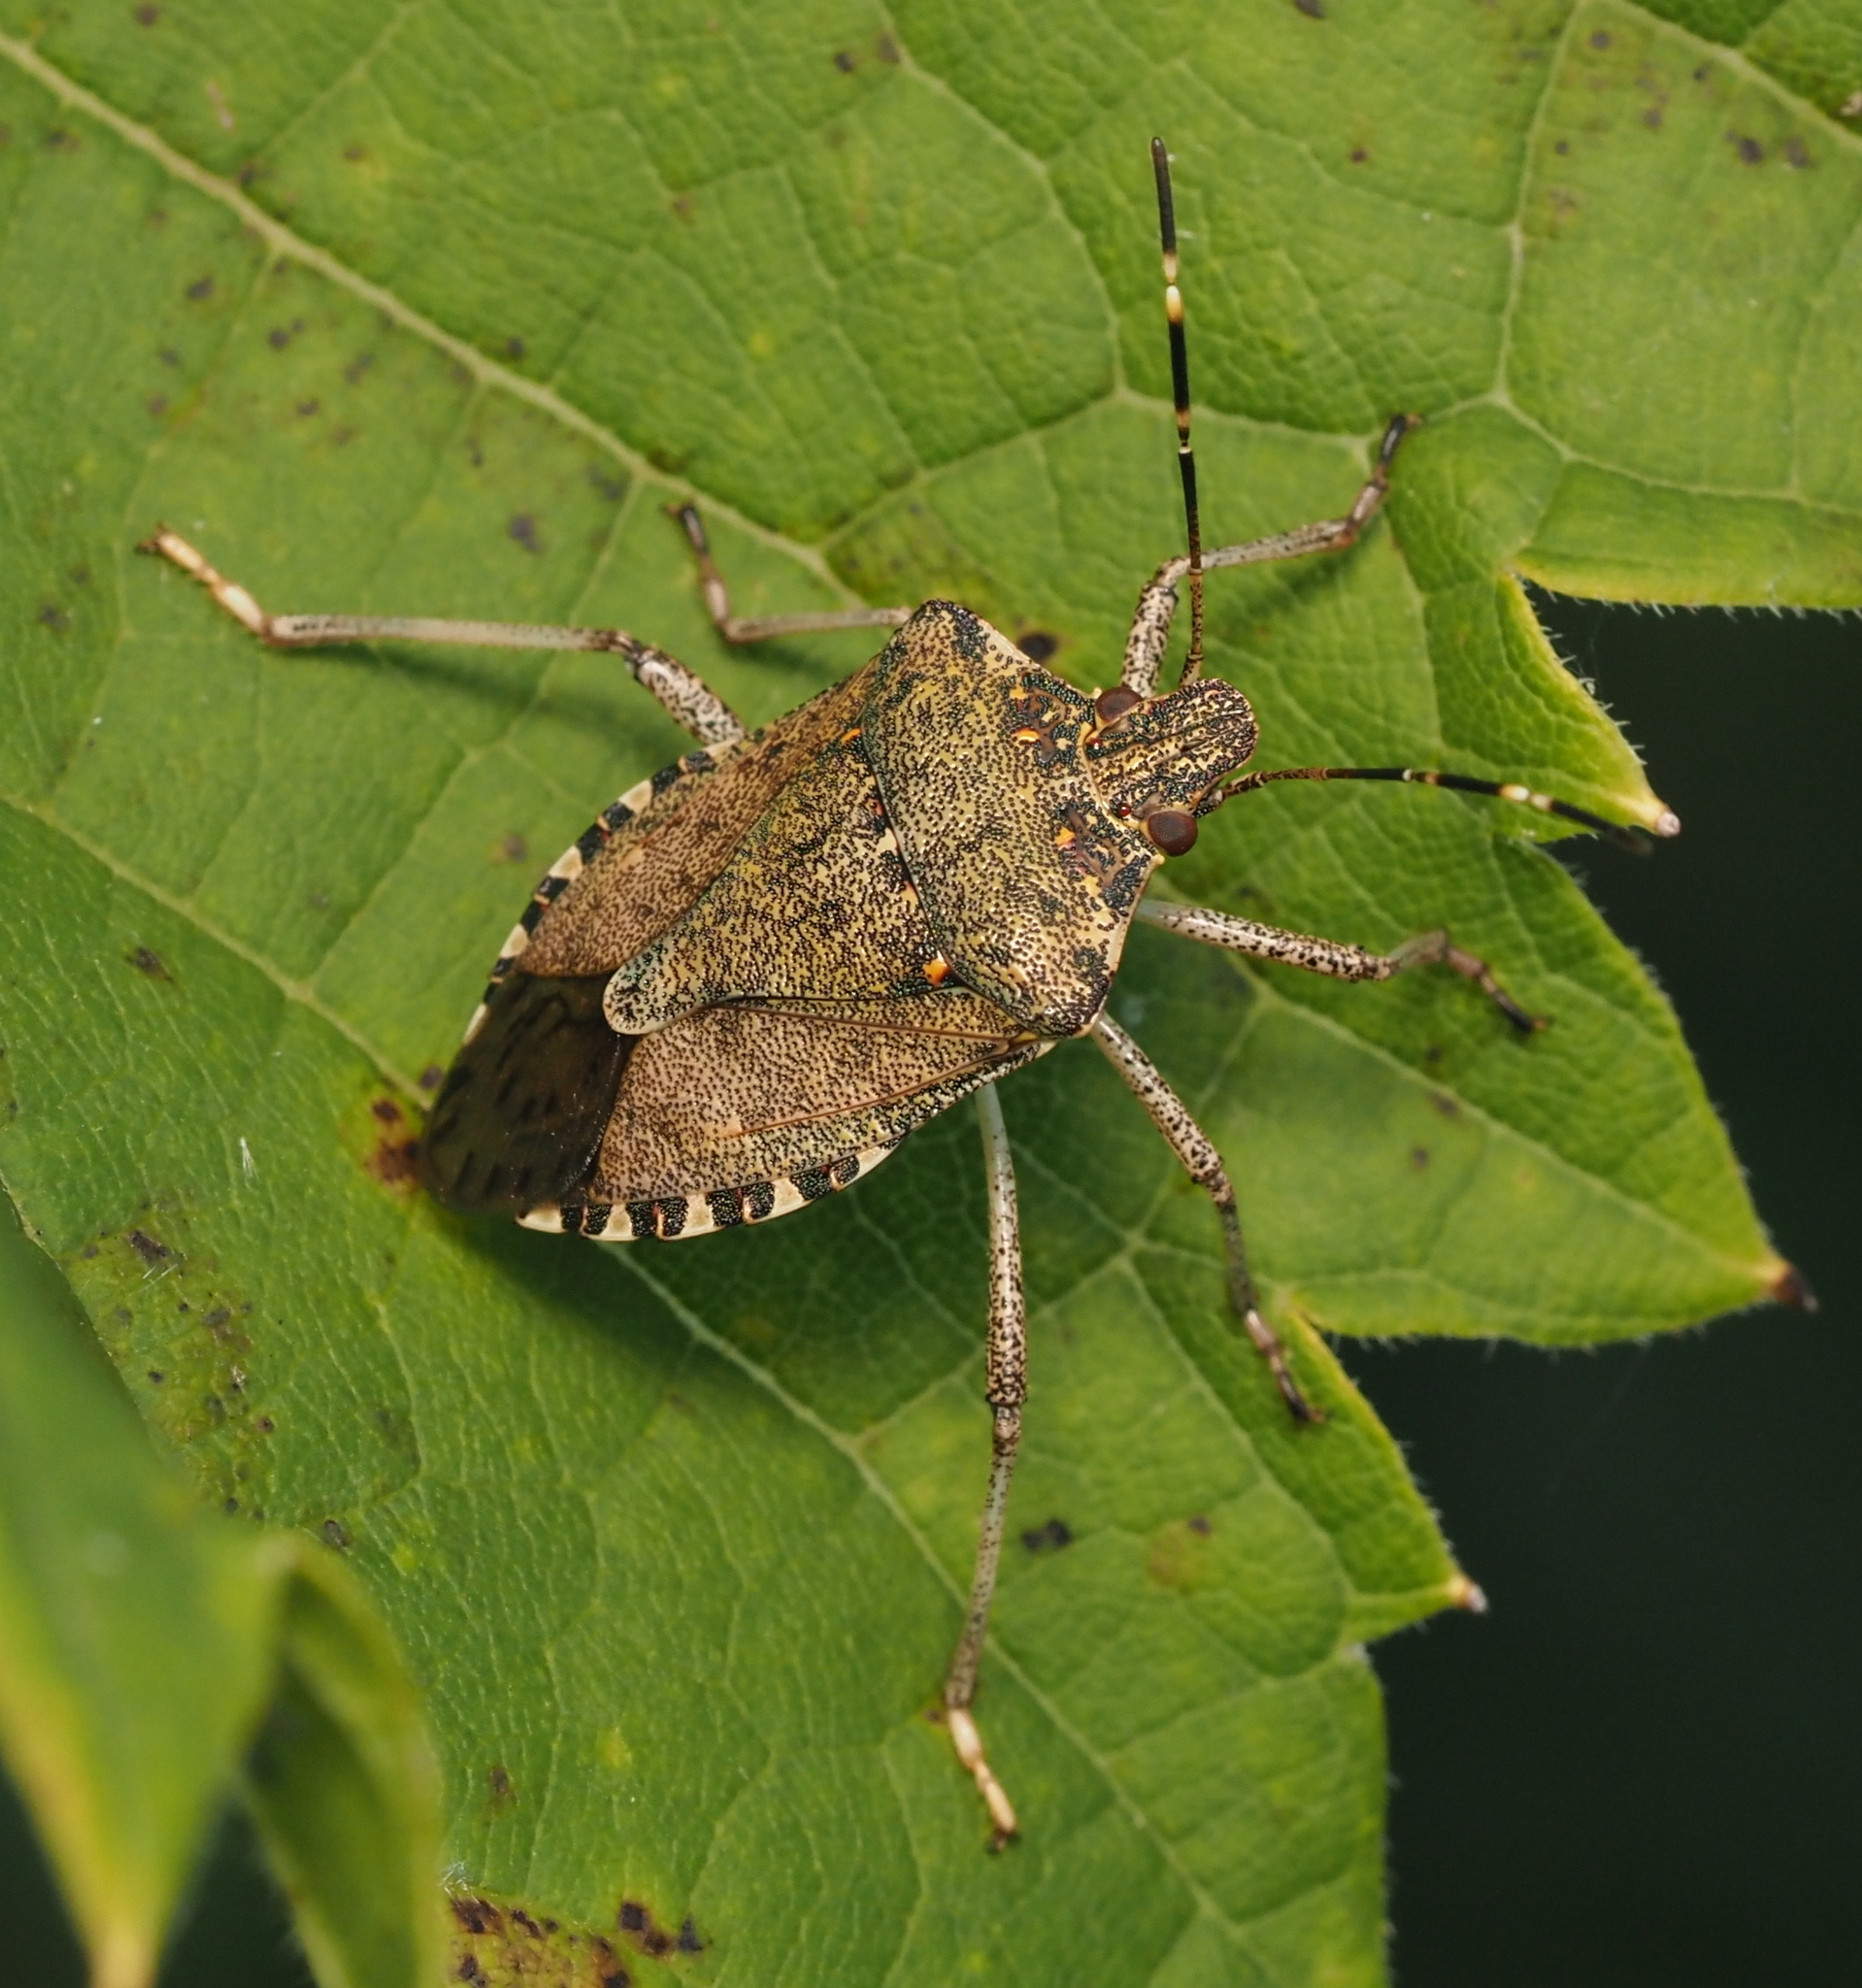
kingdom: Animalia
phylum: Arthropoda
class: Insecta
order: Hemiptera
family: Pentatomidae
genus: Halyomorpha
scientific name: Halyomorpha halys
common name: Brown marmorated stink bug
